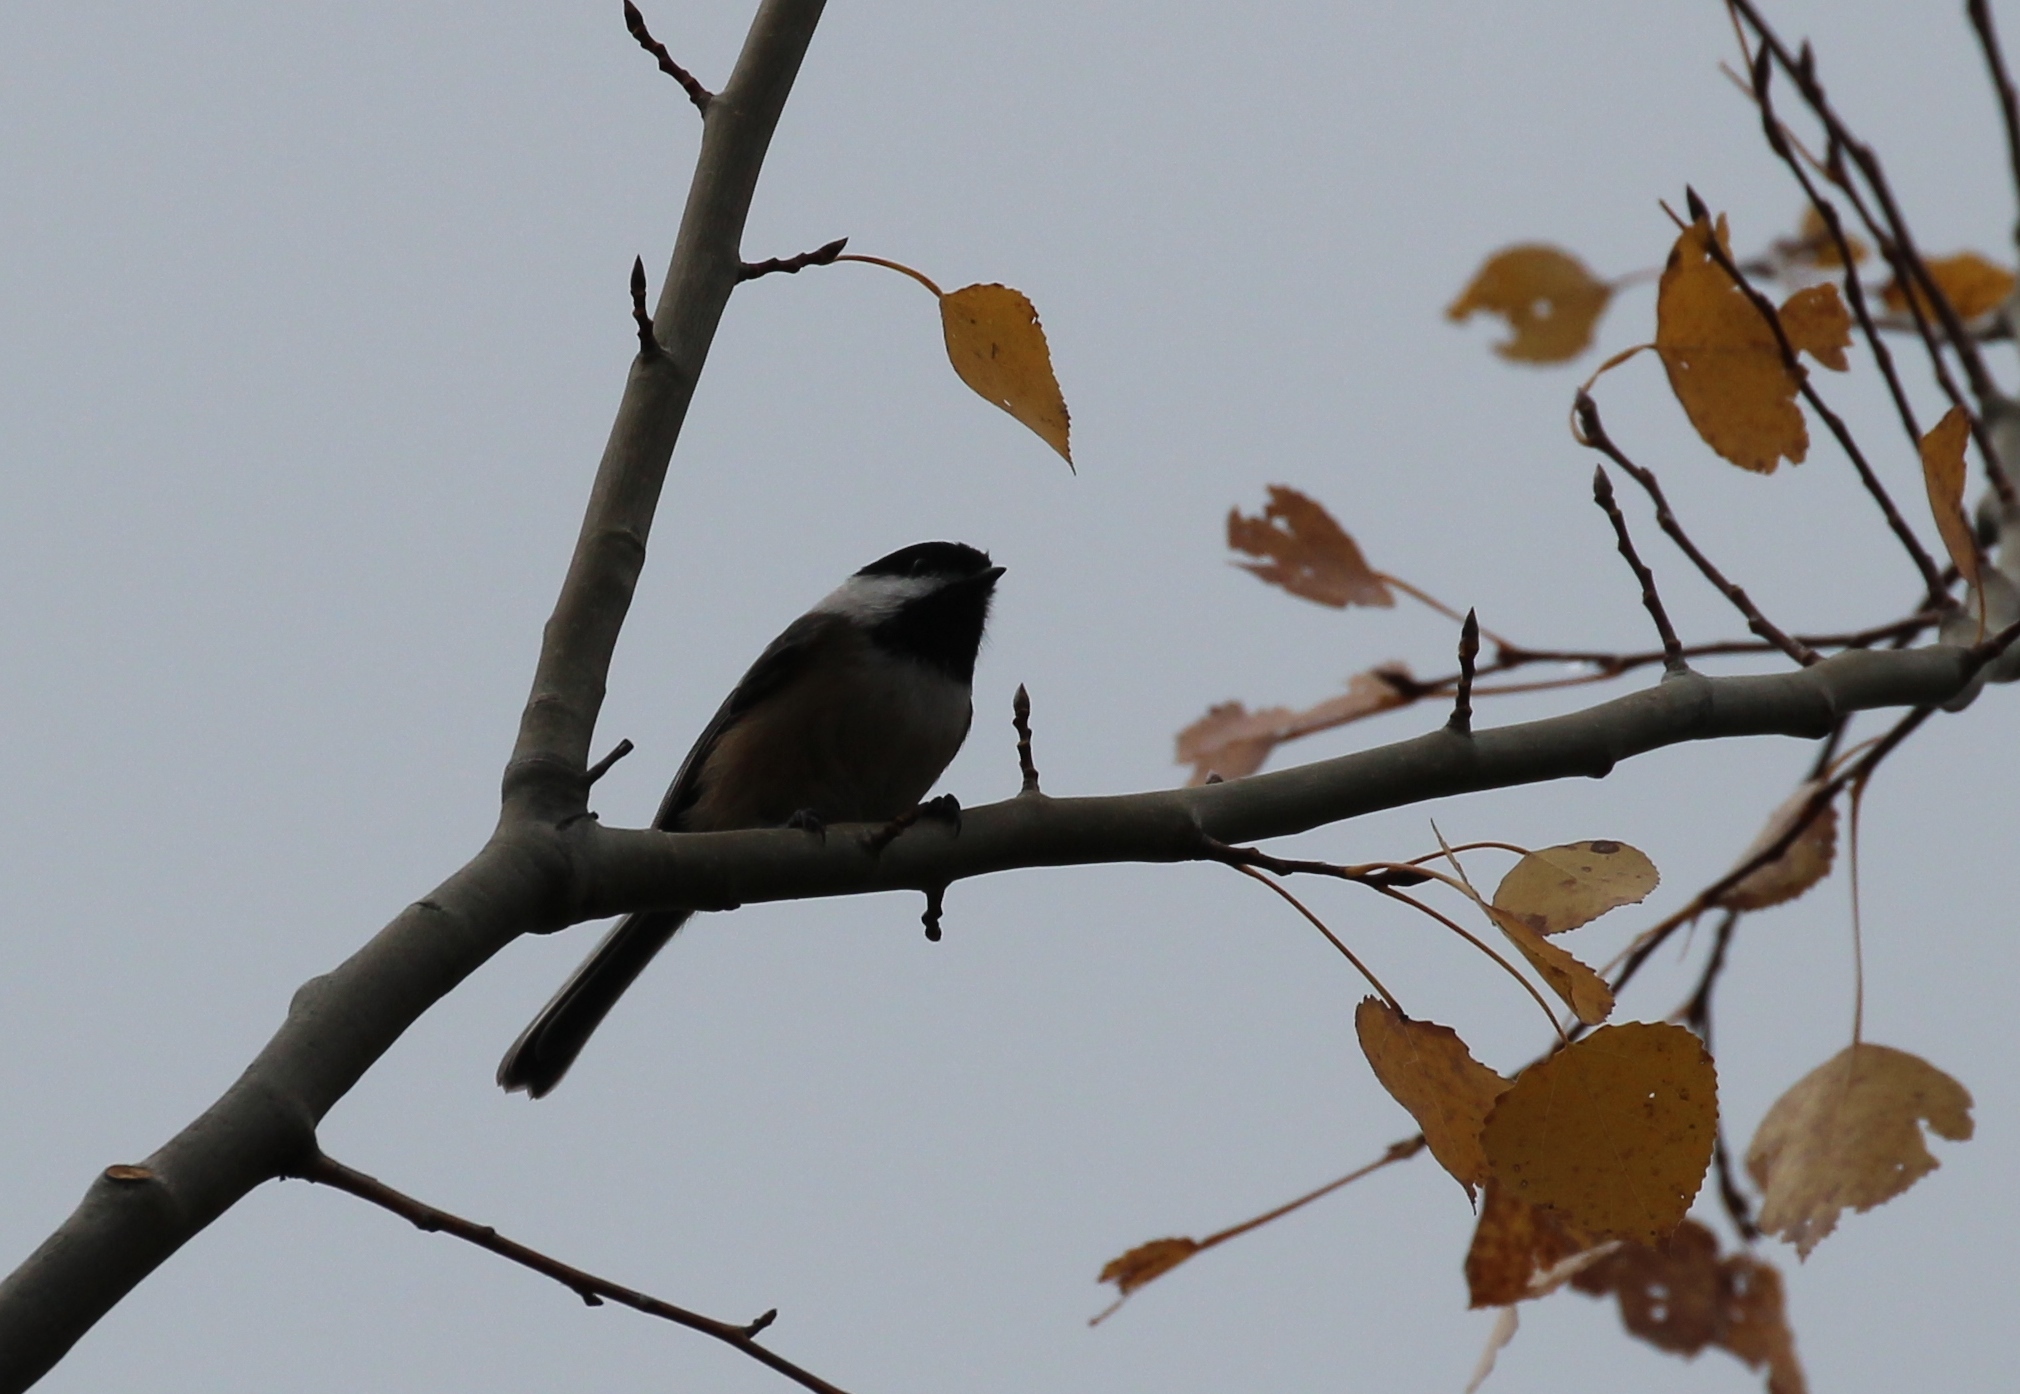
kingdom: Animalia
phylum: Chordata
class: Aves
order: Passeriformes
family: Paridae
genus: Poecile
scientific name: Poecile atricapillus
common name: Black-capped chickadee
